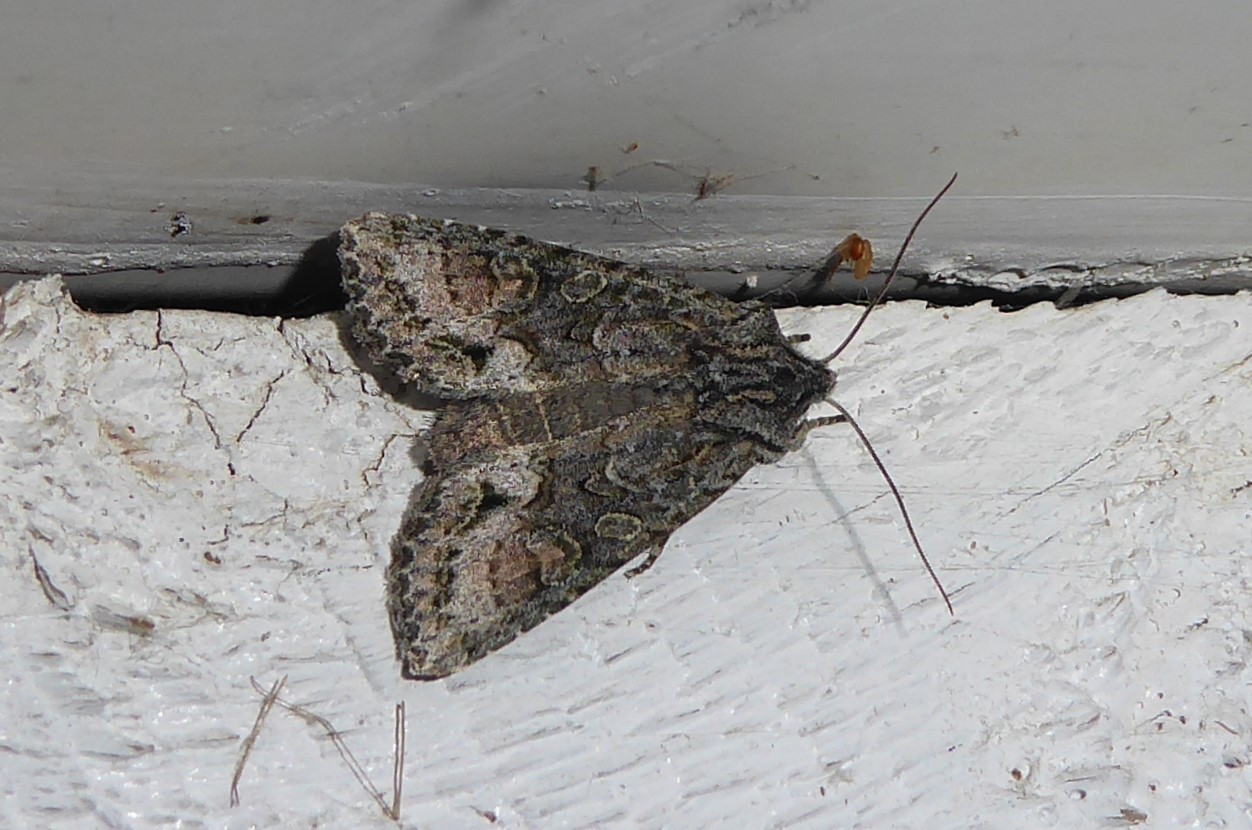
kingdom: Animalia
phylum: Arthropoda
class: Insecta
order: Lepidoptera
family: Noctuidae
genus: Ichneutica
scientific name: Ichneutica mutans
